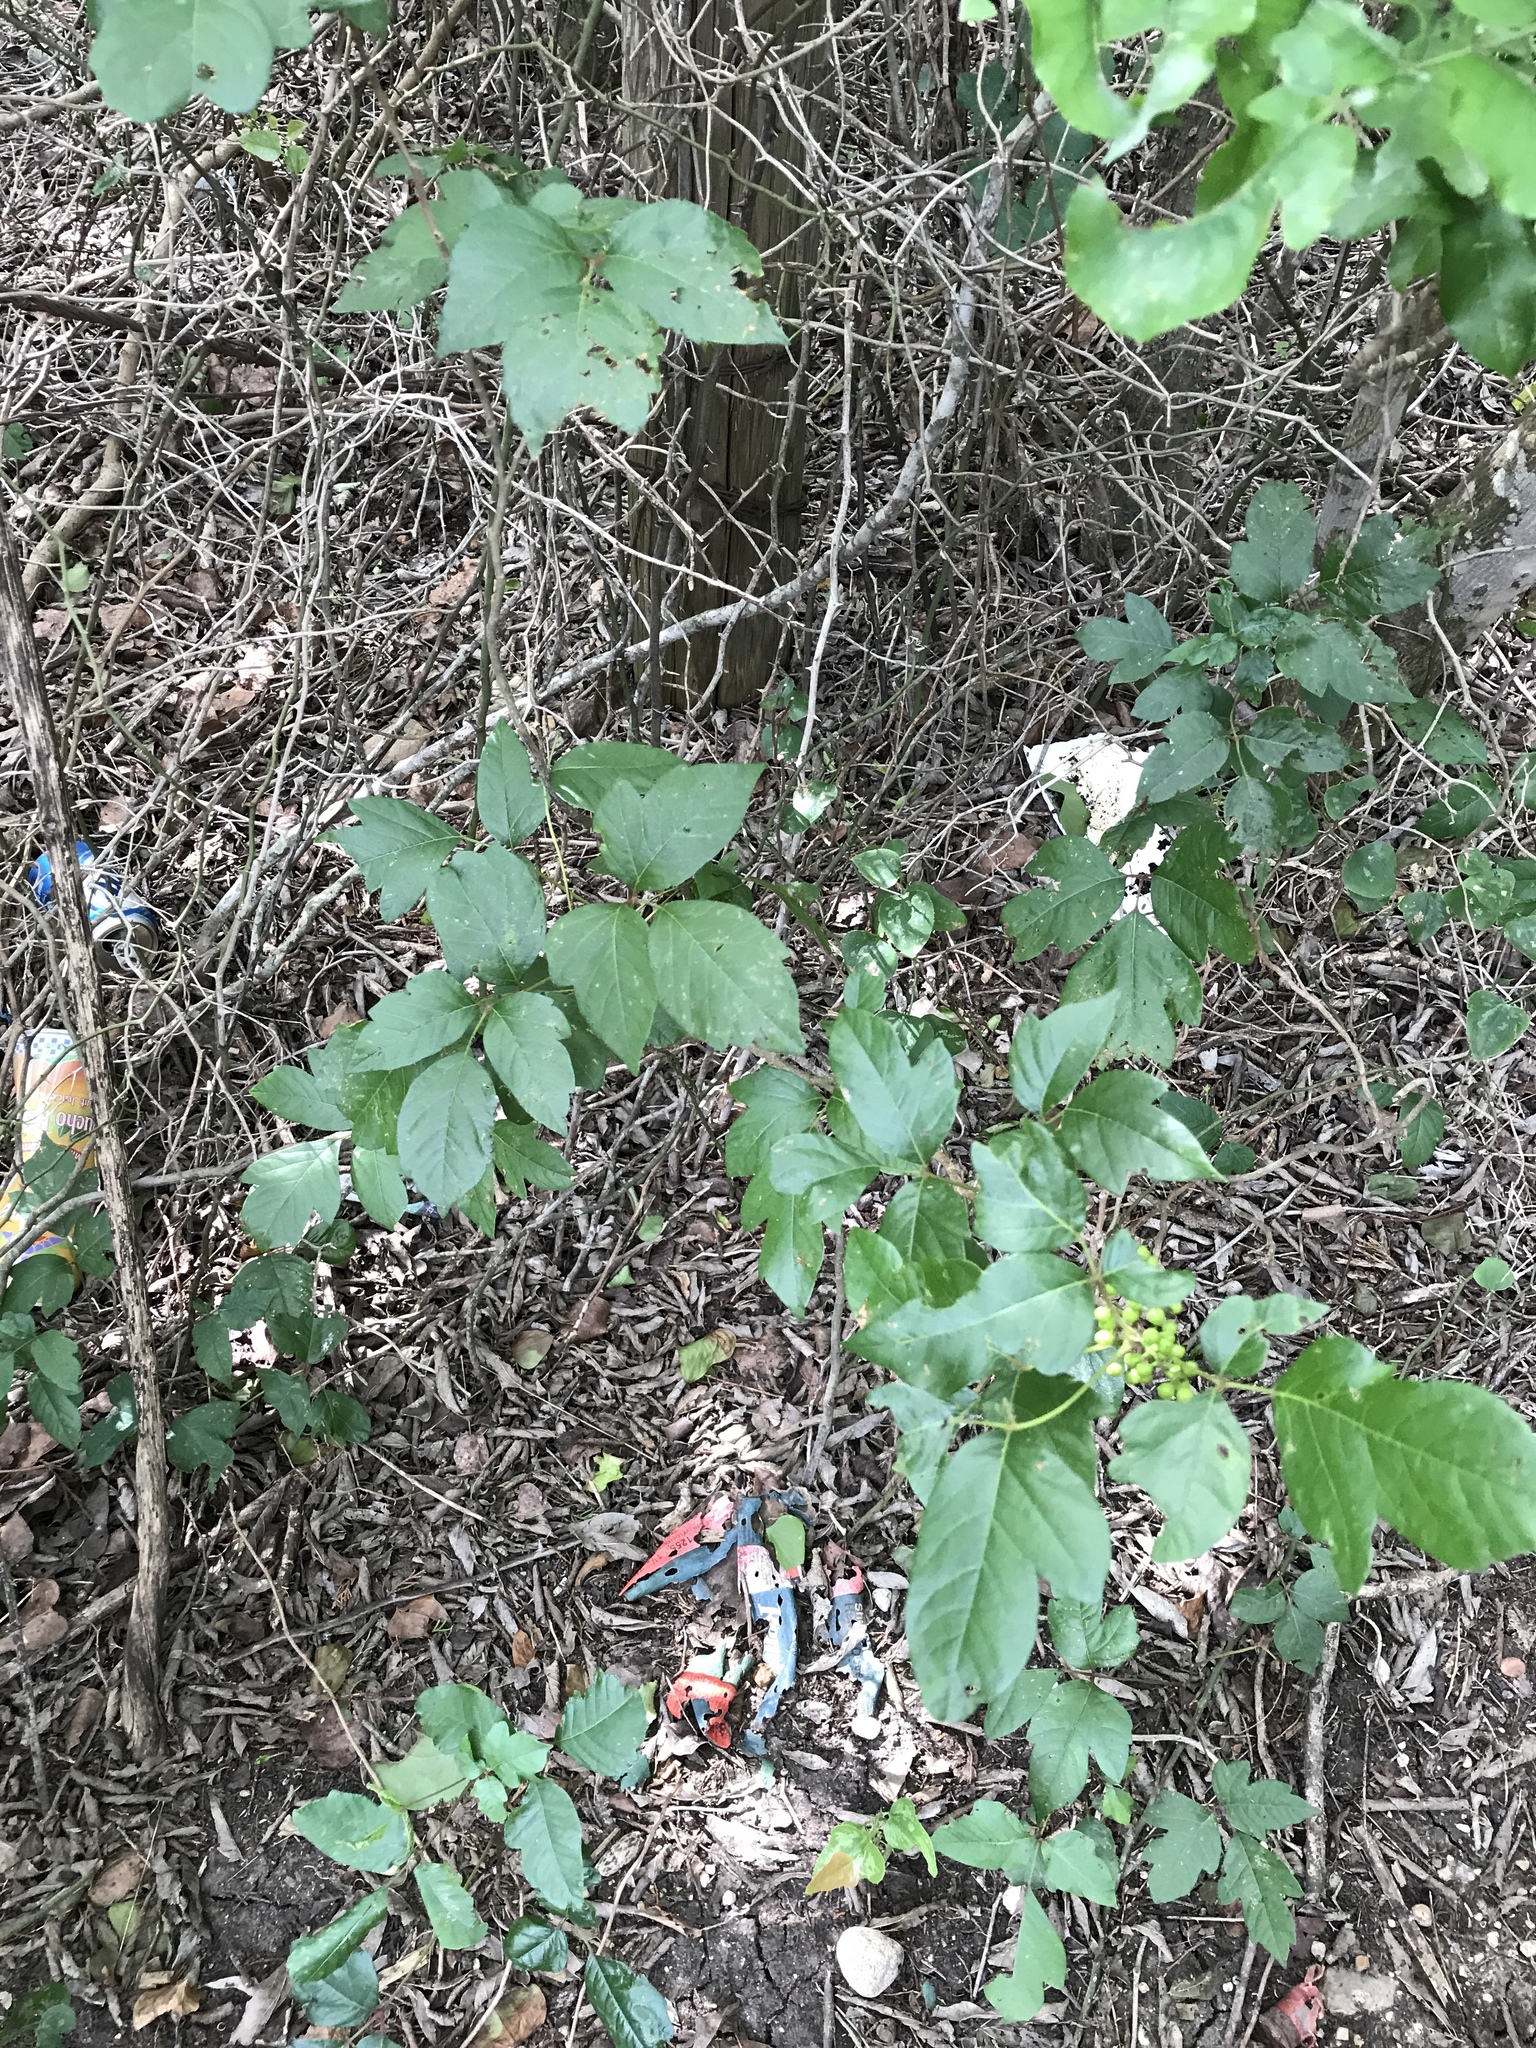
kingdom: Plantae
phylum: Tracheophyta
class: Magnoliopsida
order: Sapindales
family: Anacardiaceae
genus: Toxicodendron
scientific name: Toxicodendron radicans
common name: Poison ivy
